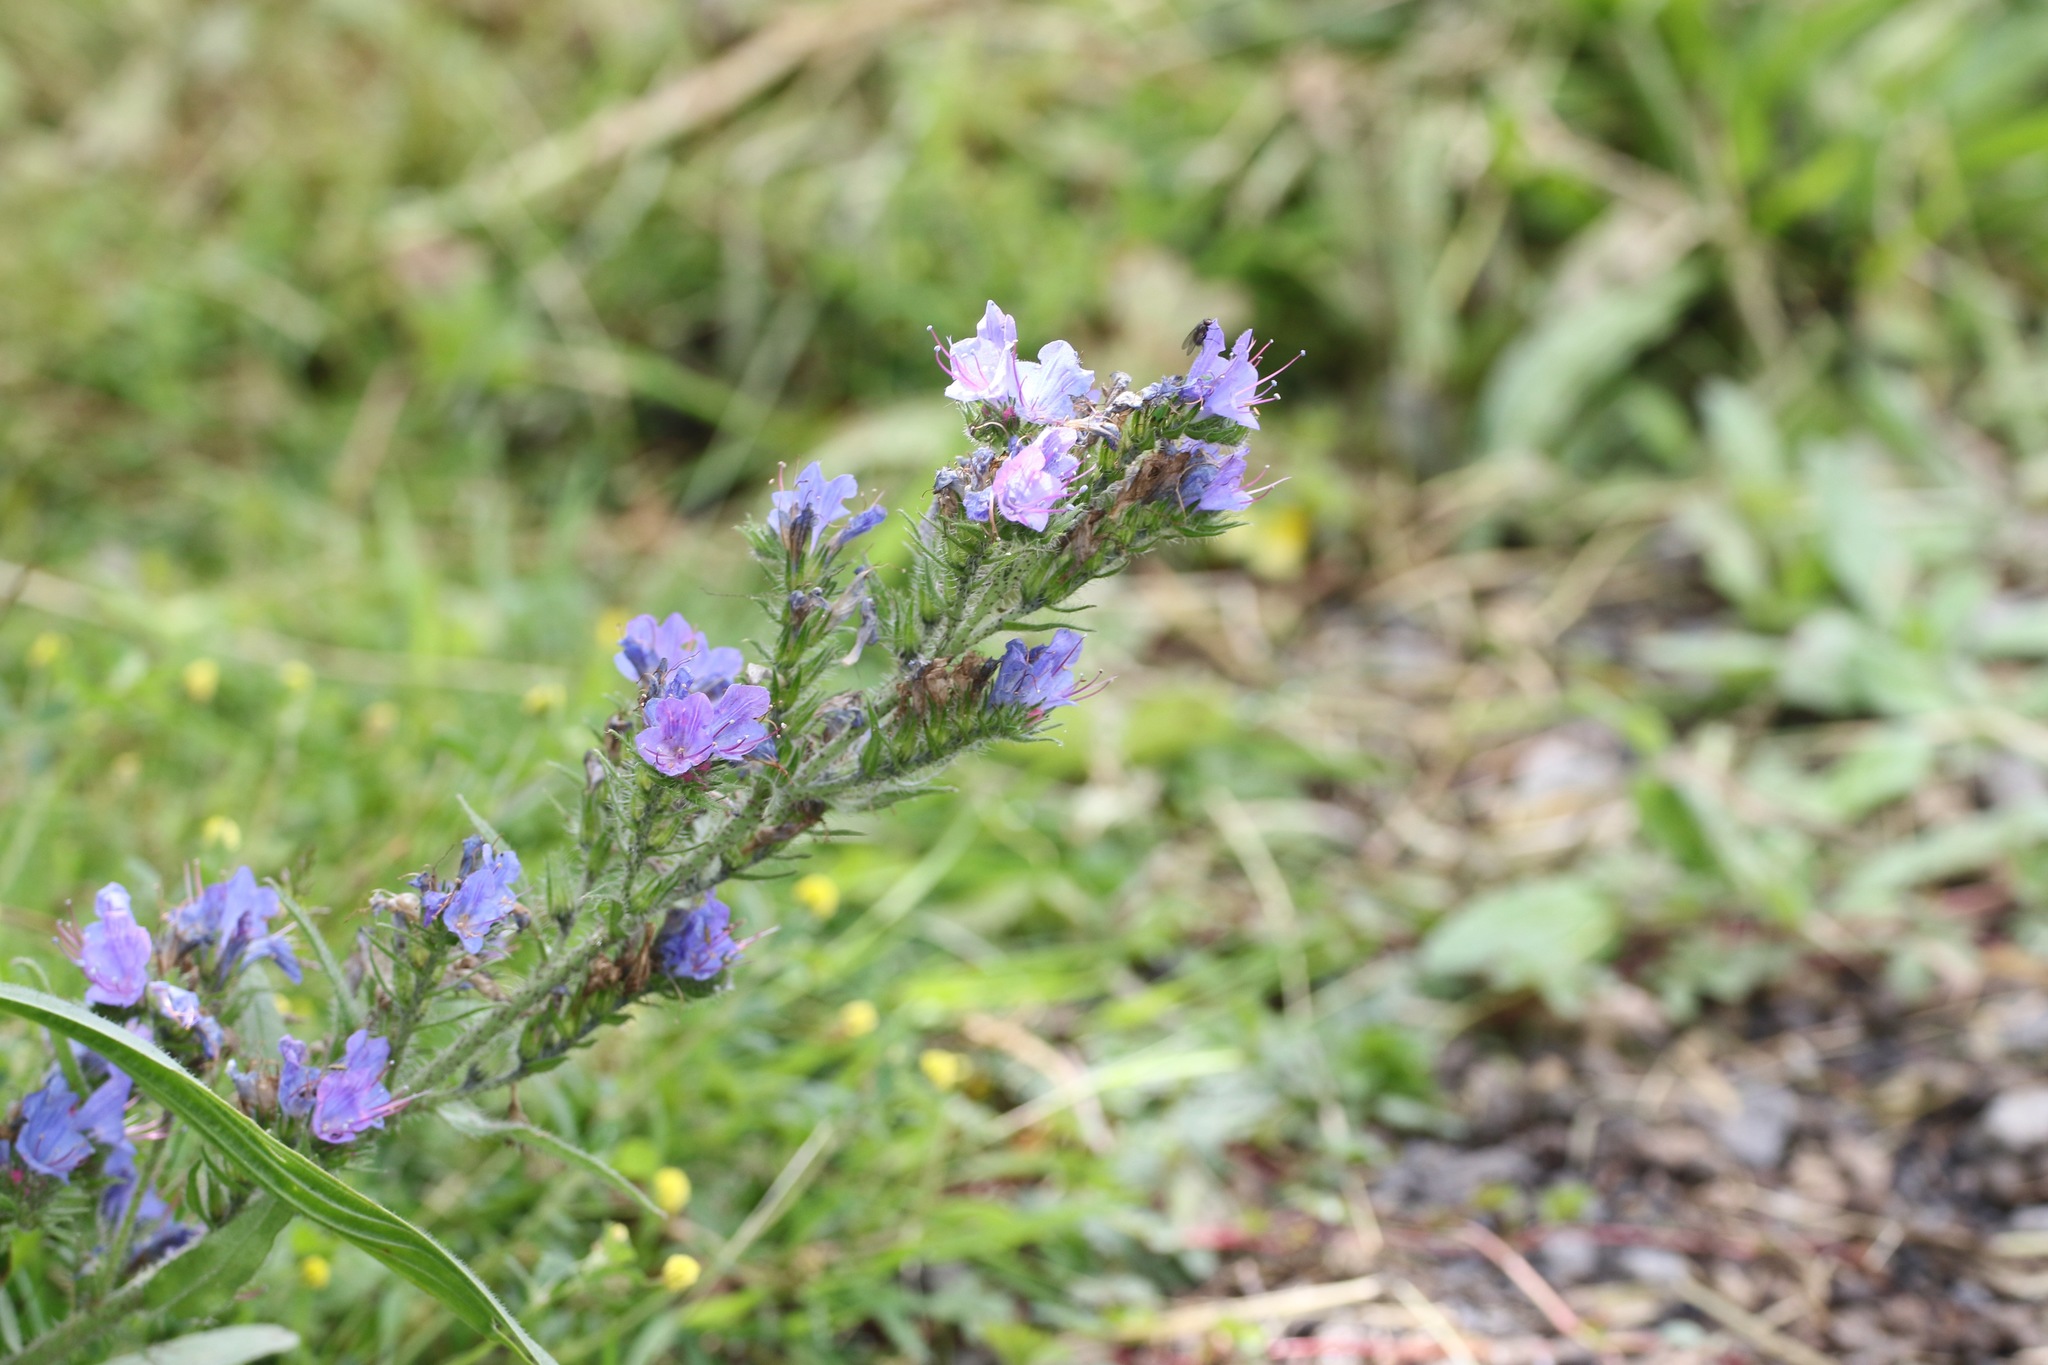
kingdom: Plantae
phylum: Tracheophyta
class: Magnoliopsida
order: Boraginales
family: Boraginaceae
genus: Echium
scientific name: Echium vulgare
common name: Common viper's bugloss
